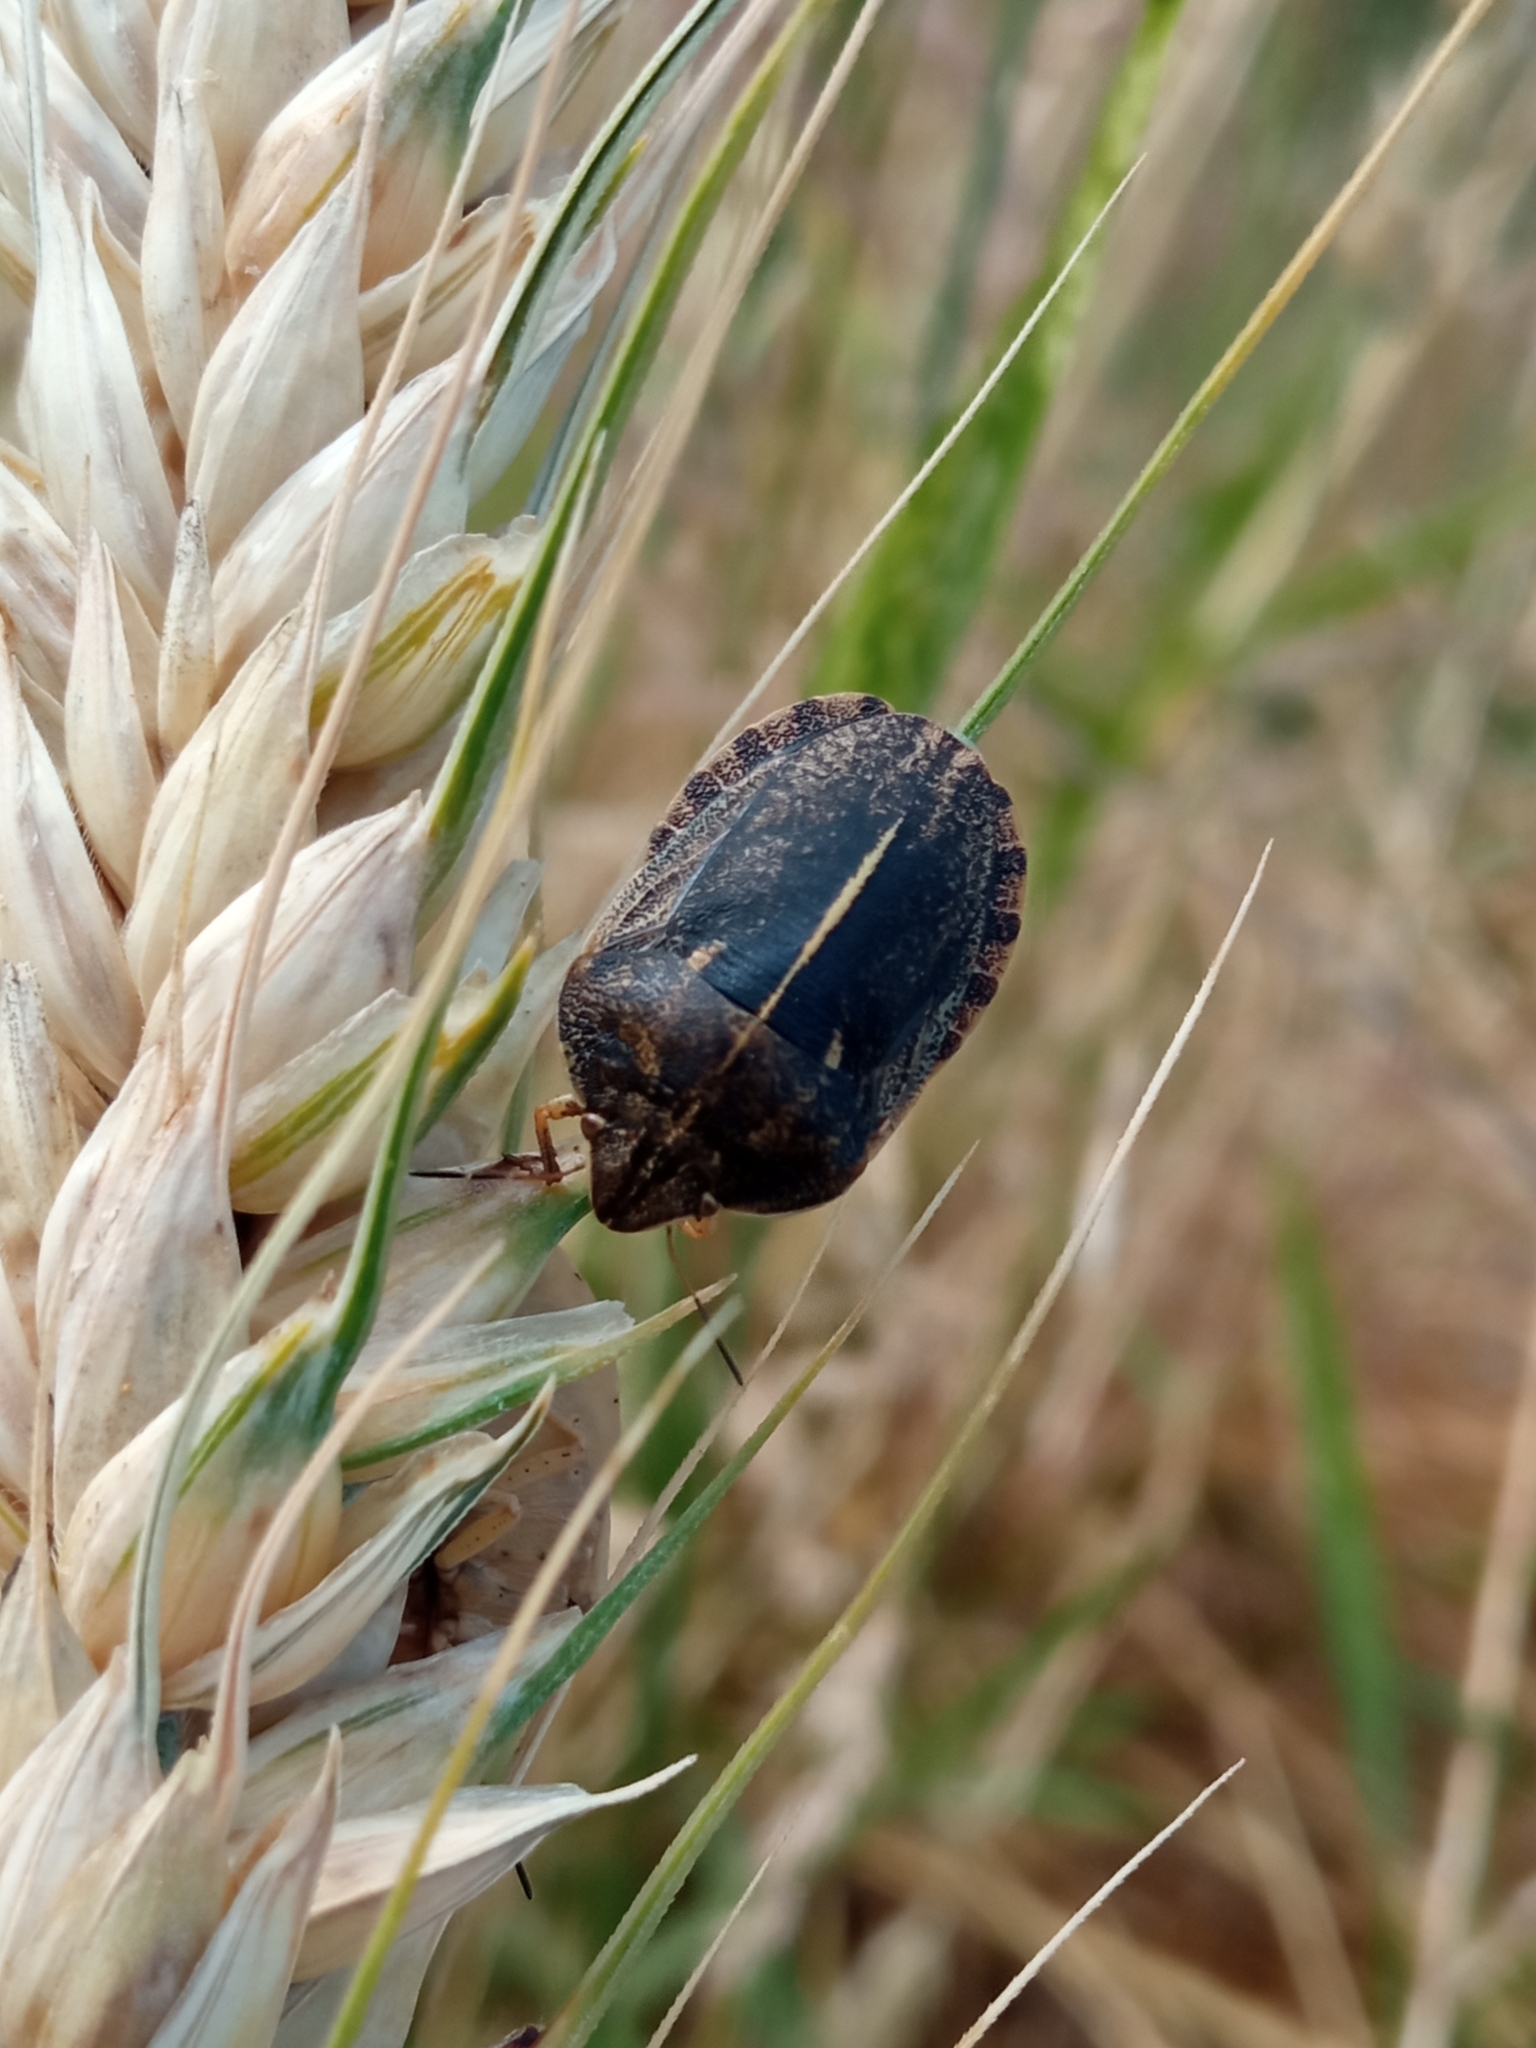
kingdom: Animalia
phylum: Arthropoda
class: Insecta
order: Hemiptera
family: Scutelleridae
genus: Eurygaster
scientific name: Eurygaster austriaca
